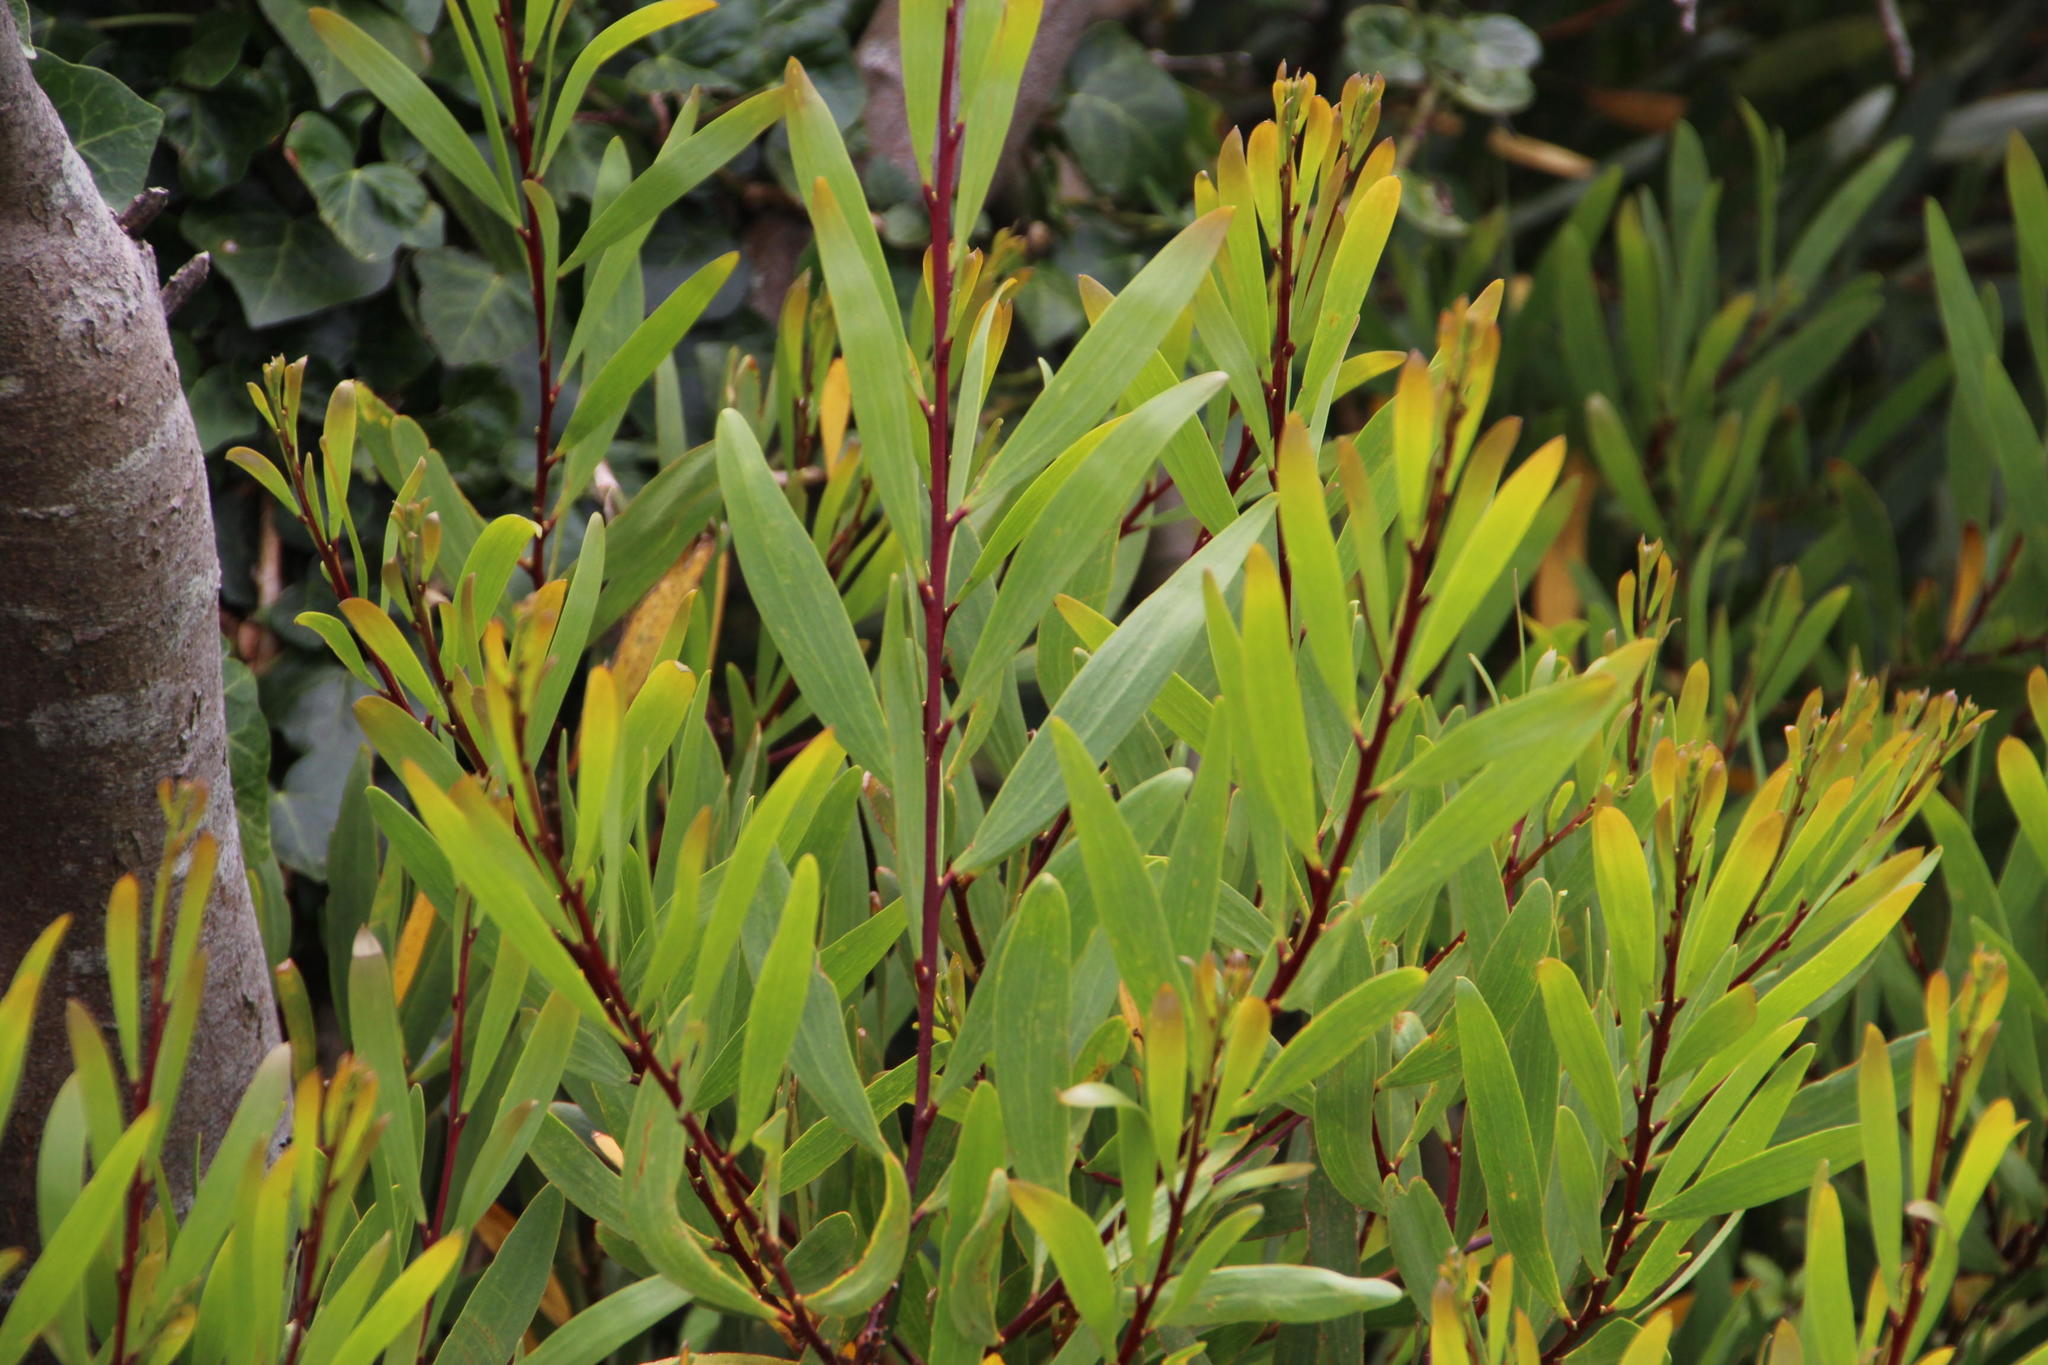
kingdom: Plantae
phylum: Tracheophyta
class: Magnoliopsida
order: Fabales
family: Fabaceae
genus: Acacia
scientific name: Acacia longifolia
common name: Sydney golden wattle
